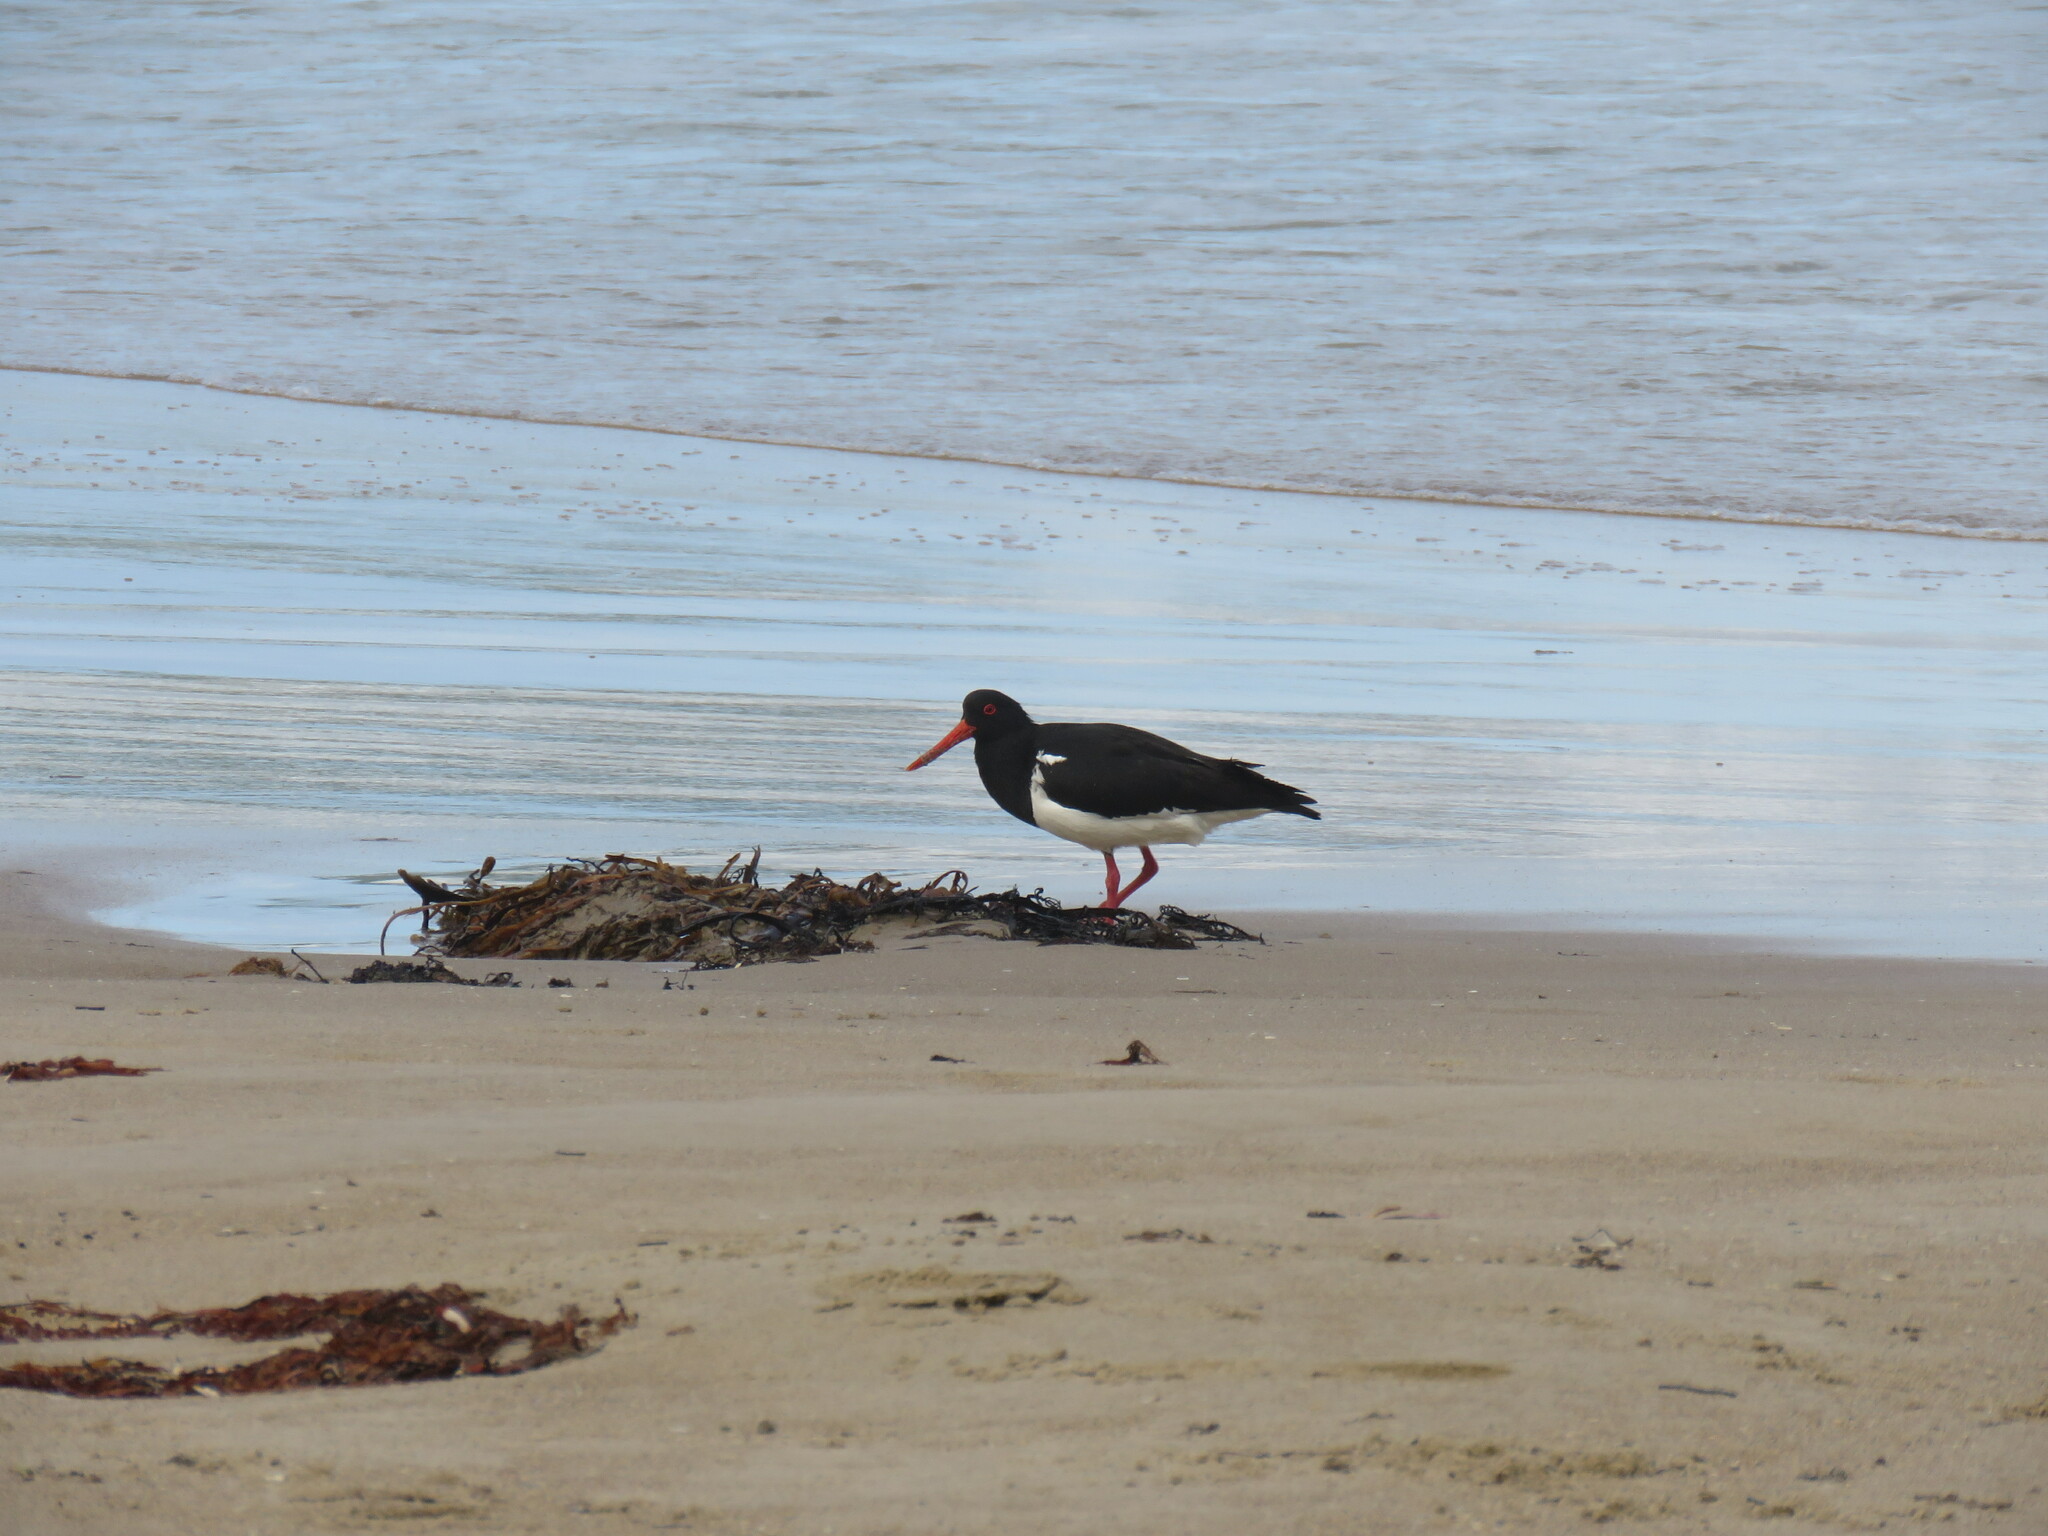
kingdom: Animalia
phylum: Chordata
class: Aves
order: Charadriiformes
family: Haematopodidae
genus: Haematopus
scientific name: Haematopus longirostris
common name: Pied oystercatcher
